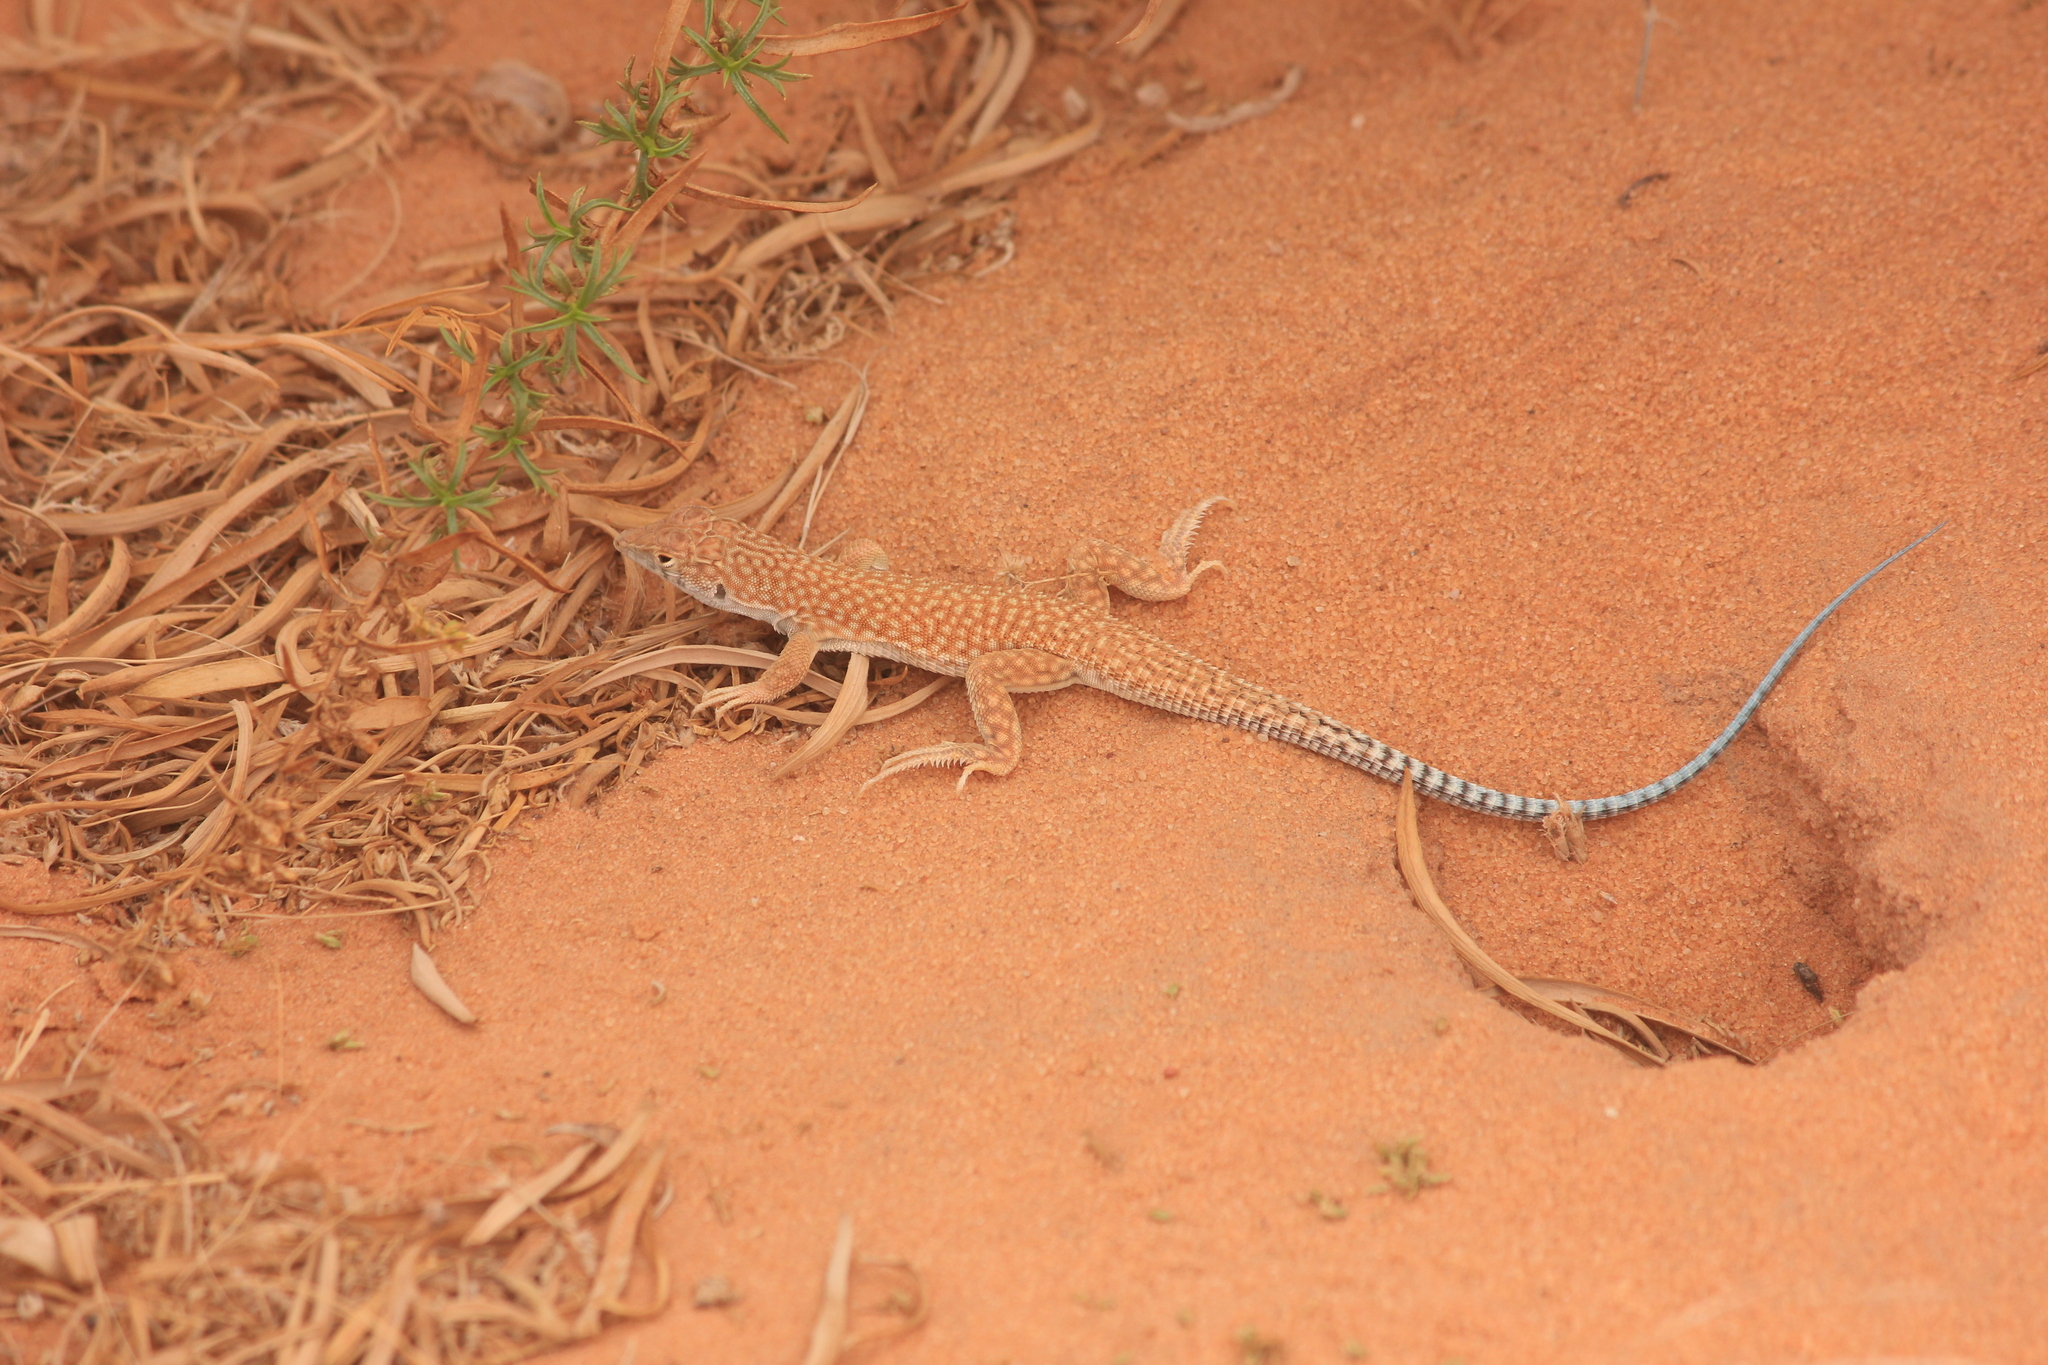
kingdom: Animalia
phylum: Chordata
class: Squamata
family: Lacertidae
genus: Acanthodactylus
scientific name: Acanthodactylus schmidti
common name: Schmidt's fringe-toed lizard
